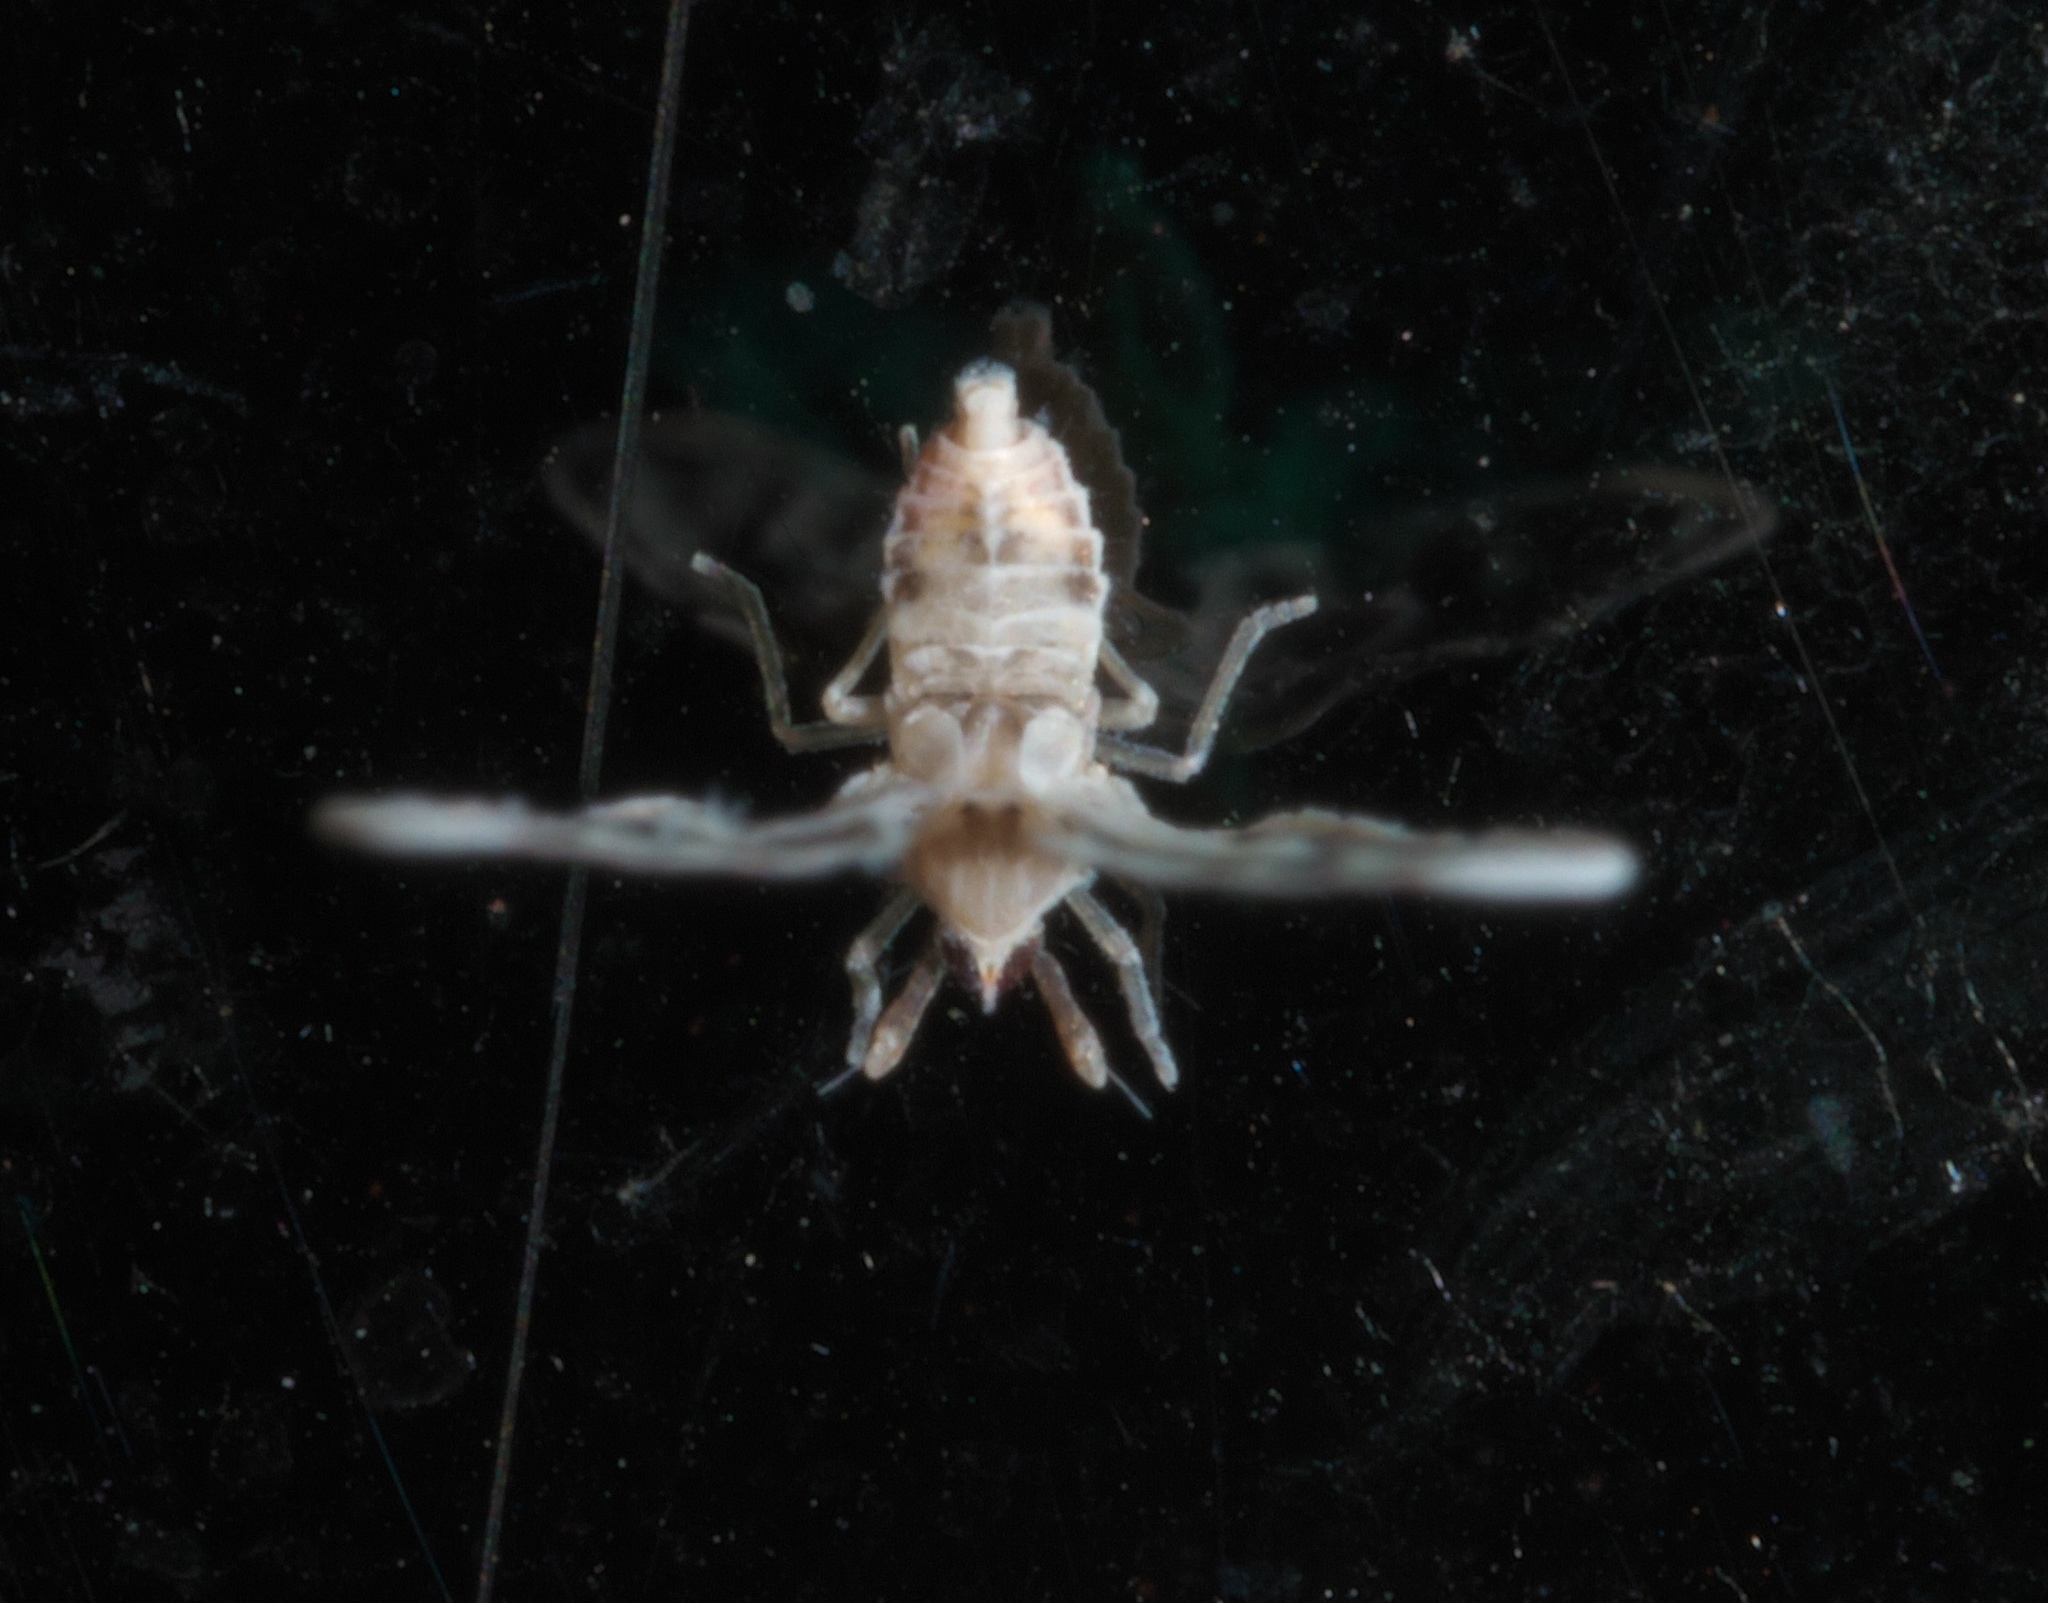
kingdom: Animalia
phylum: Arthropoda
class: Insecta
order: Hemiptera
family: Derbidae
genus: Sikaiana
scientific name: Sikaiana harti
